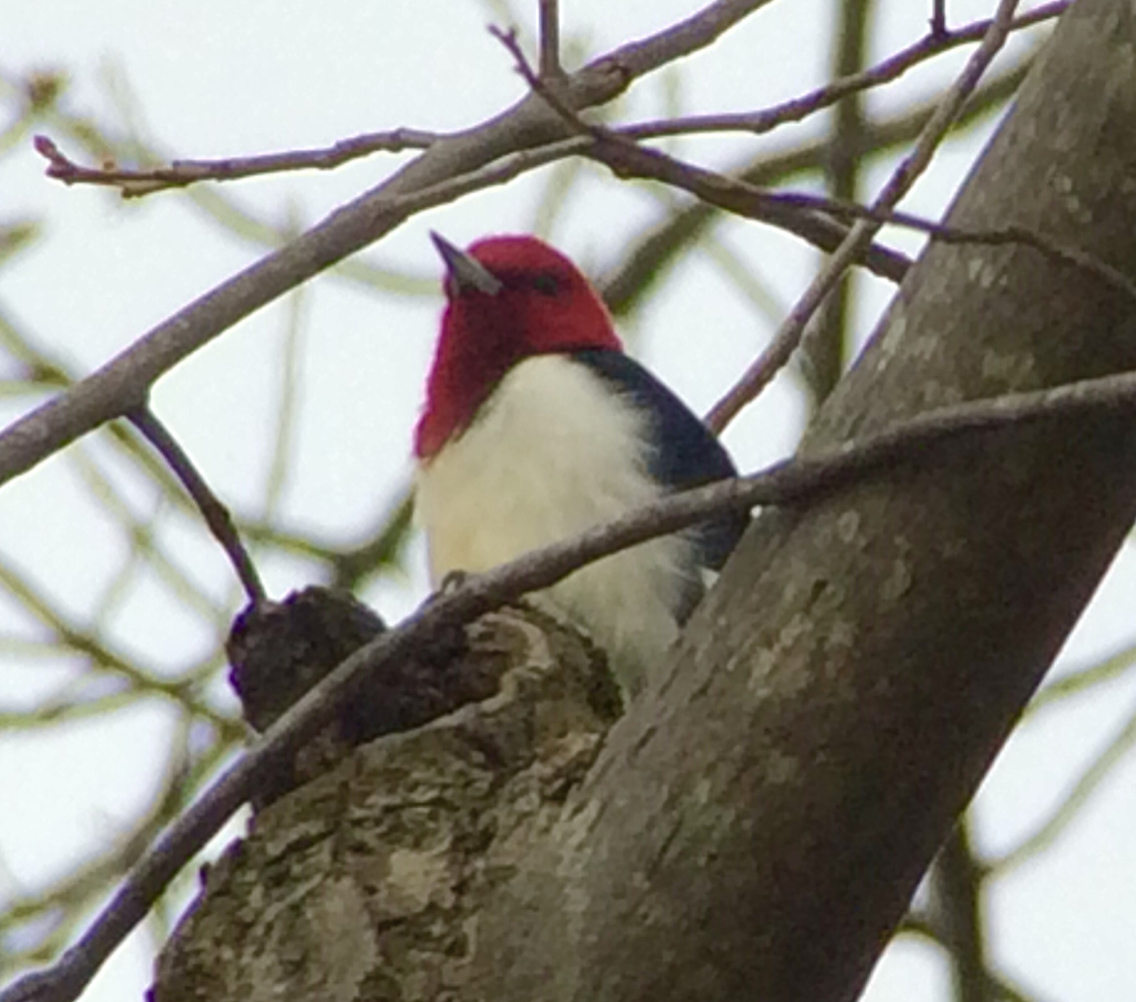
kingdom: Animalia
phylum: Chordata
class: Aves
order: Piciformes
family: Picidae
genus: Melanerpes
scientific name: Melanerpes erythrocephalus
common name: Red-headed woodpecker
